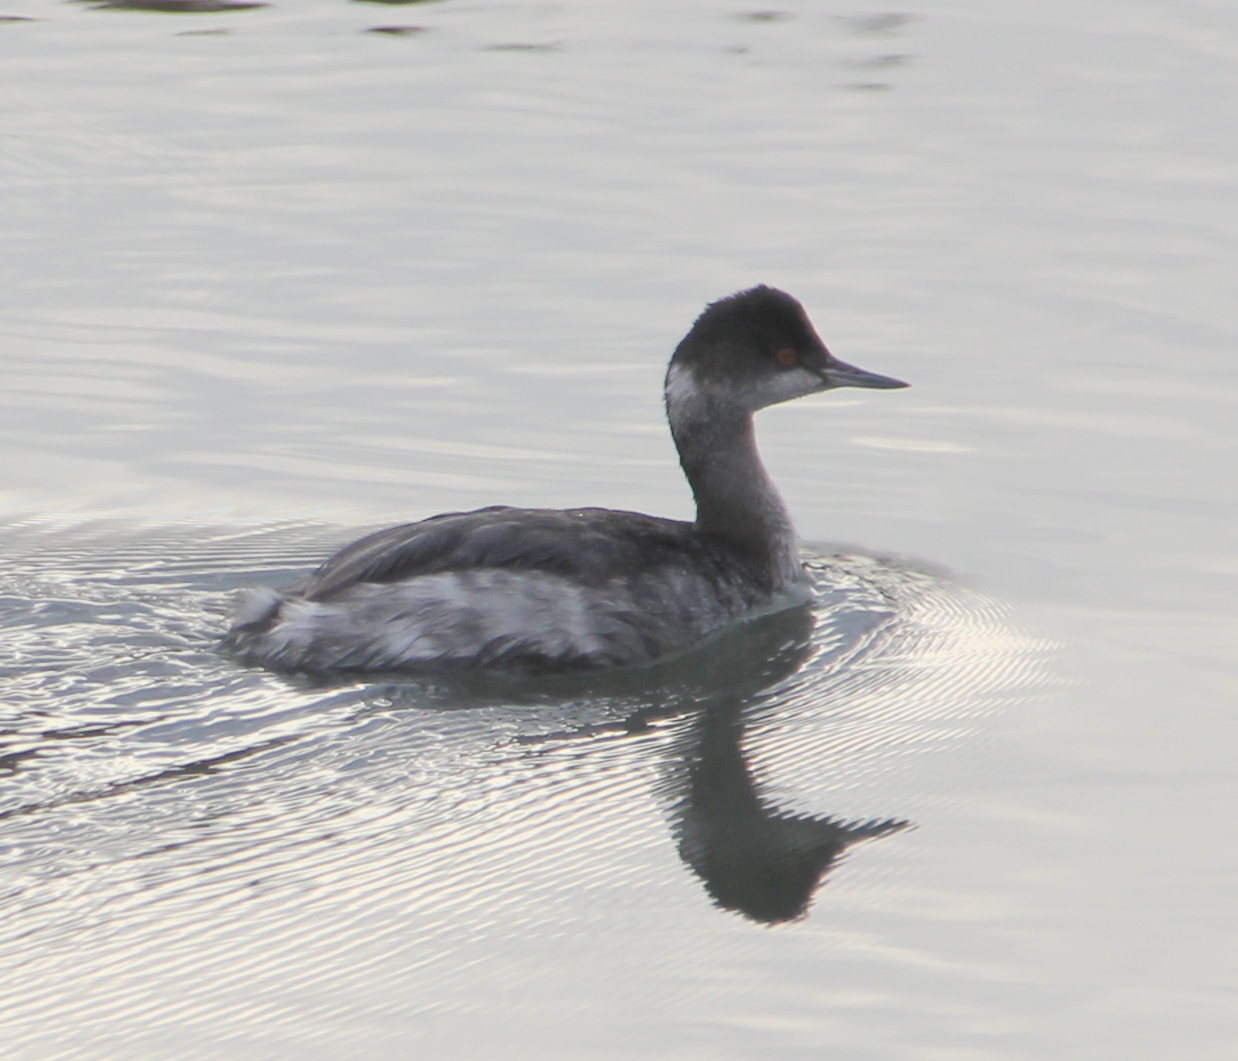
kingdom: Animalia
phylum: Chordata
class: Aves
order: Podicipediformes
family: Podicipedidae
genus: Podiceps
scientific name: Podiceps nigricollis
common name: Black-necked grebe
